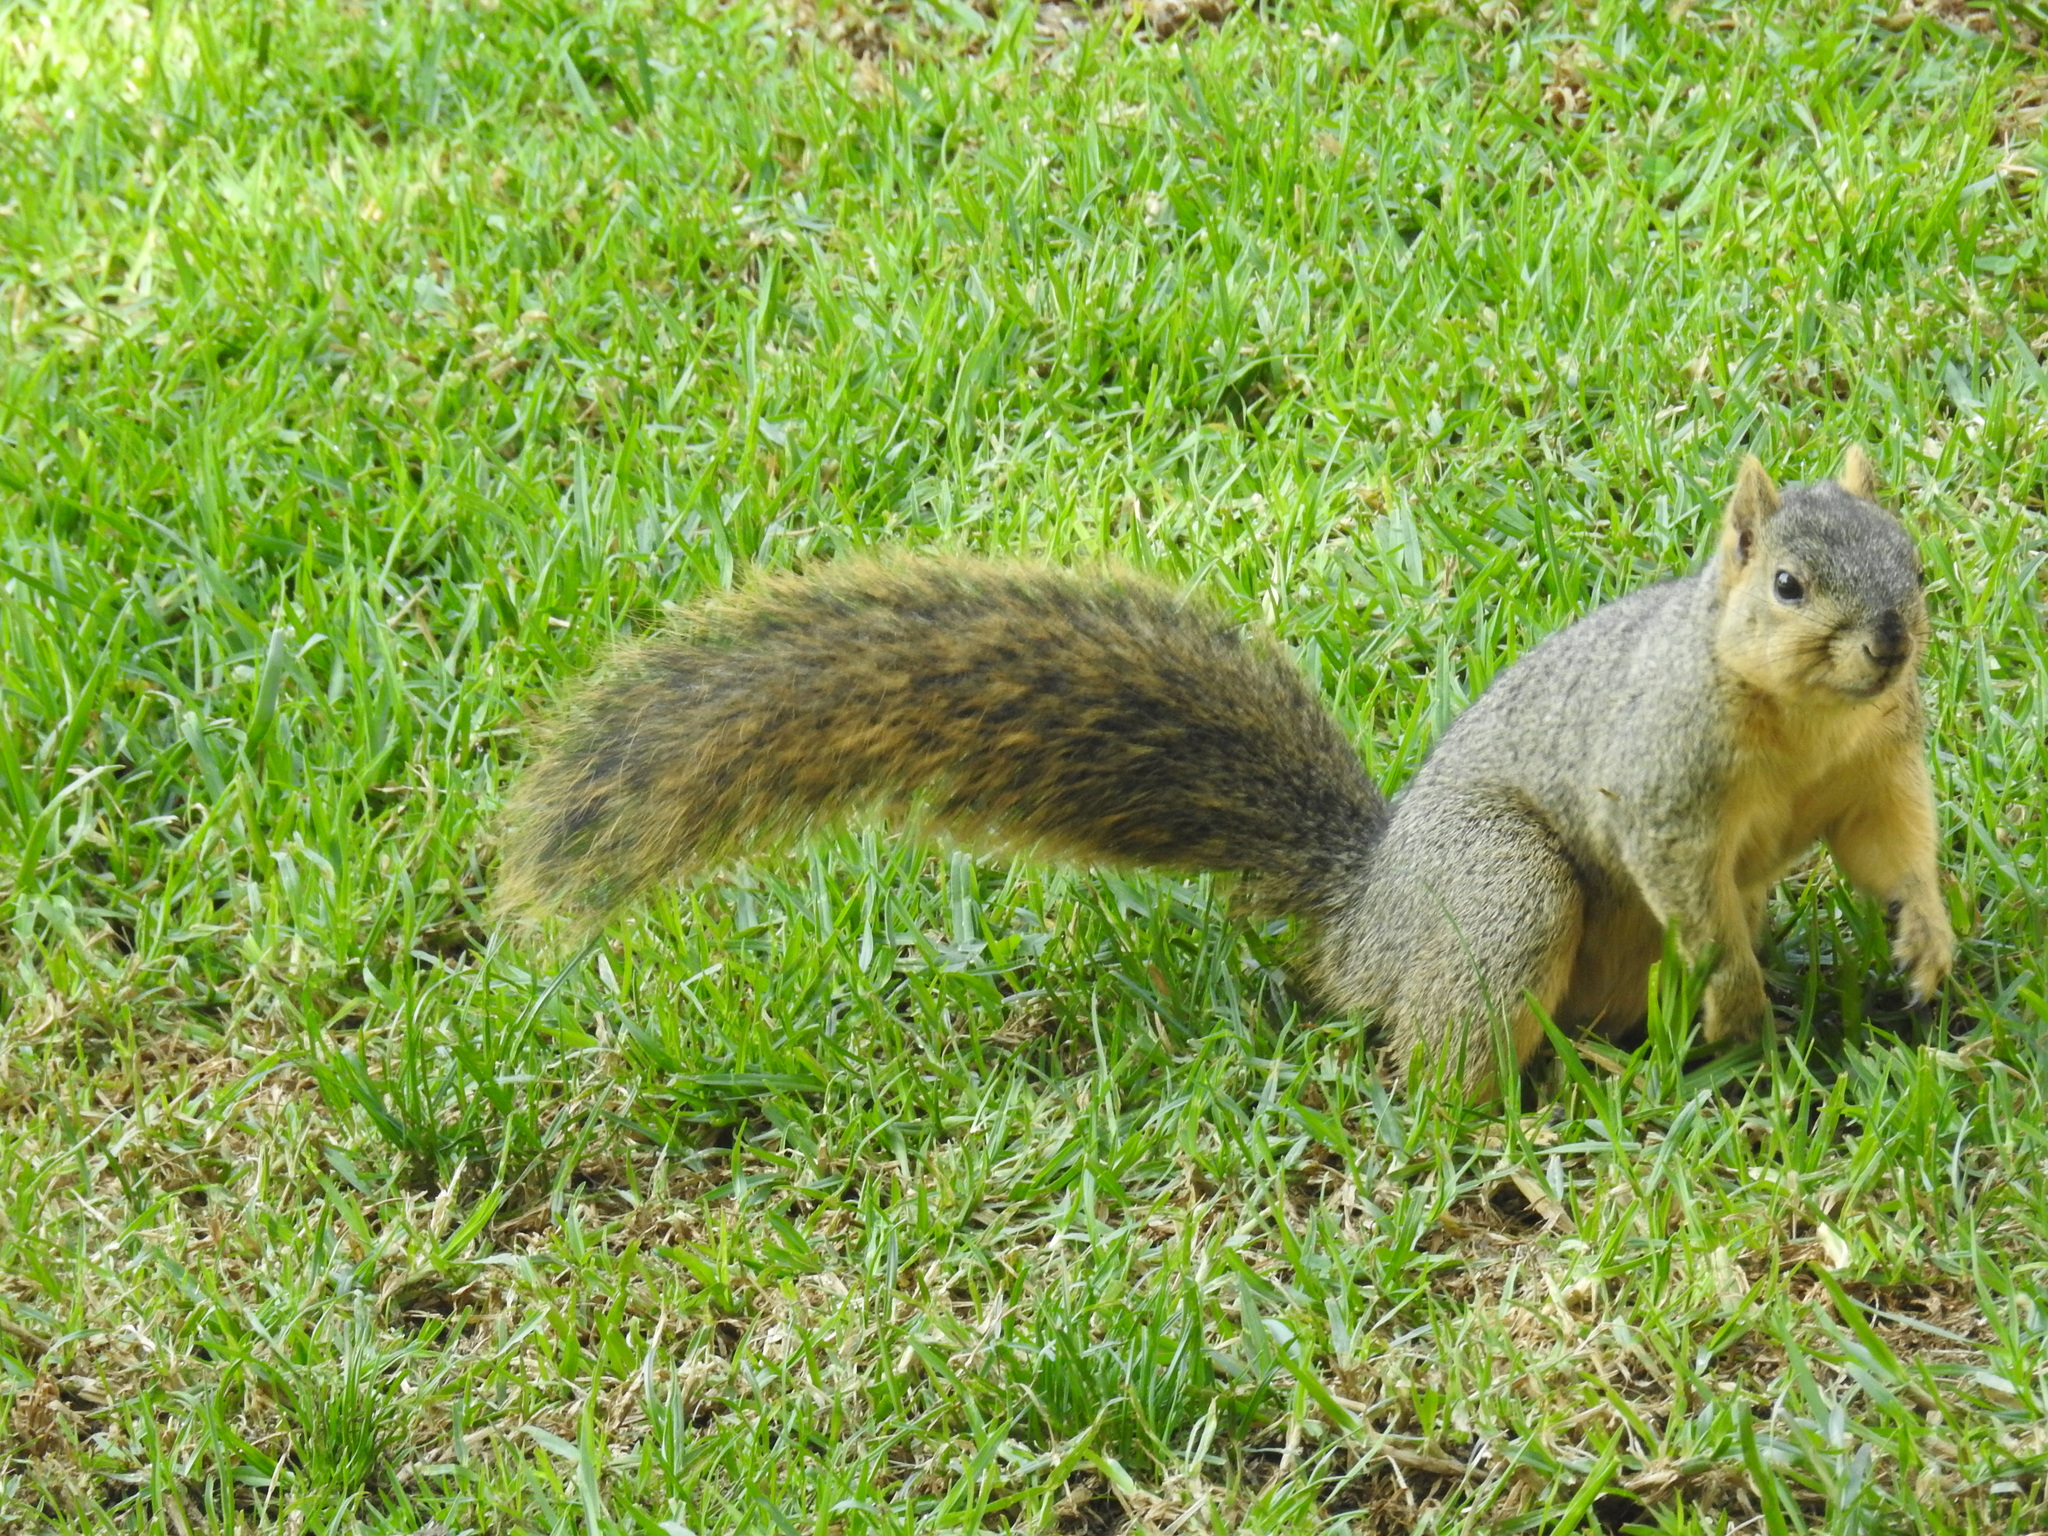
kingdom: Animalia
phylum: Chordata
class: Mammalia
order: Rodentia
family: Sciuridae
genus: Sciurus
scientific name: Sciurus niger
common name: Fox squirrel
